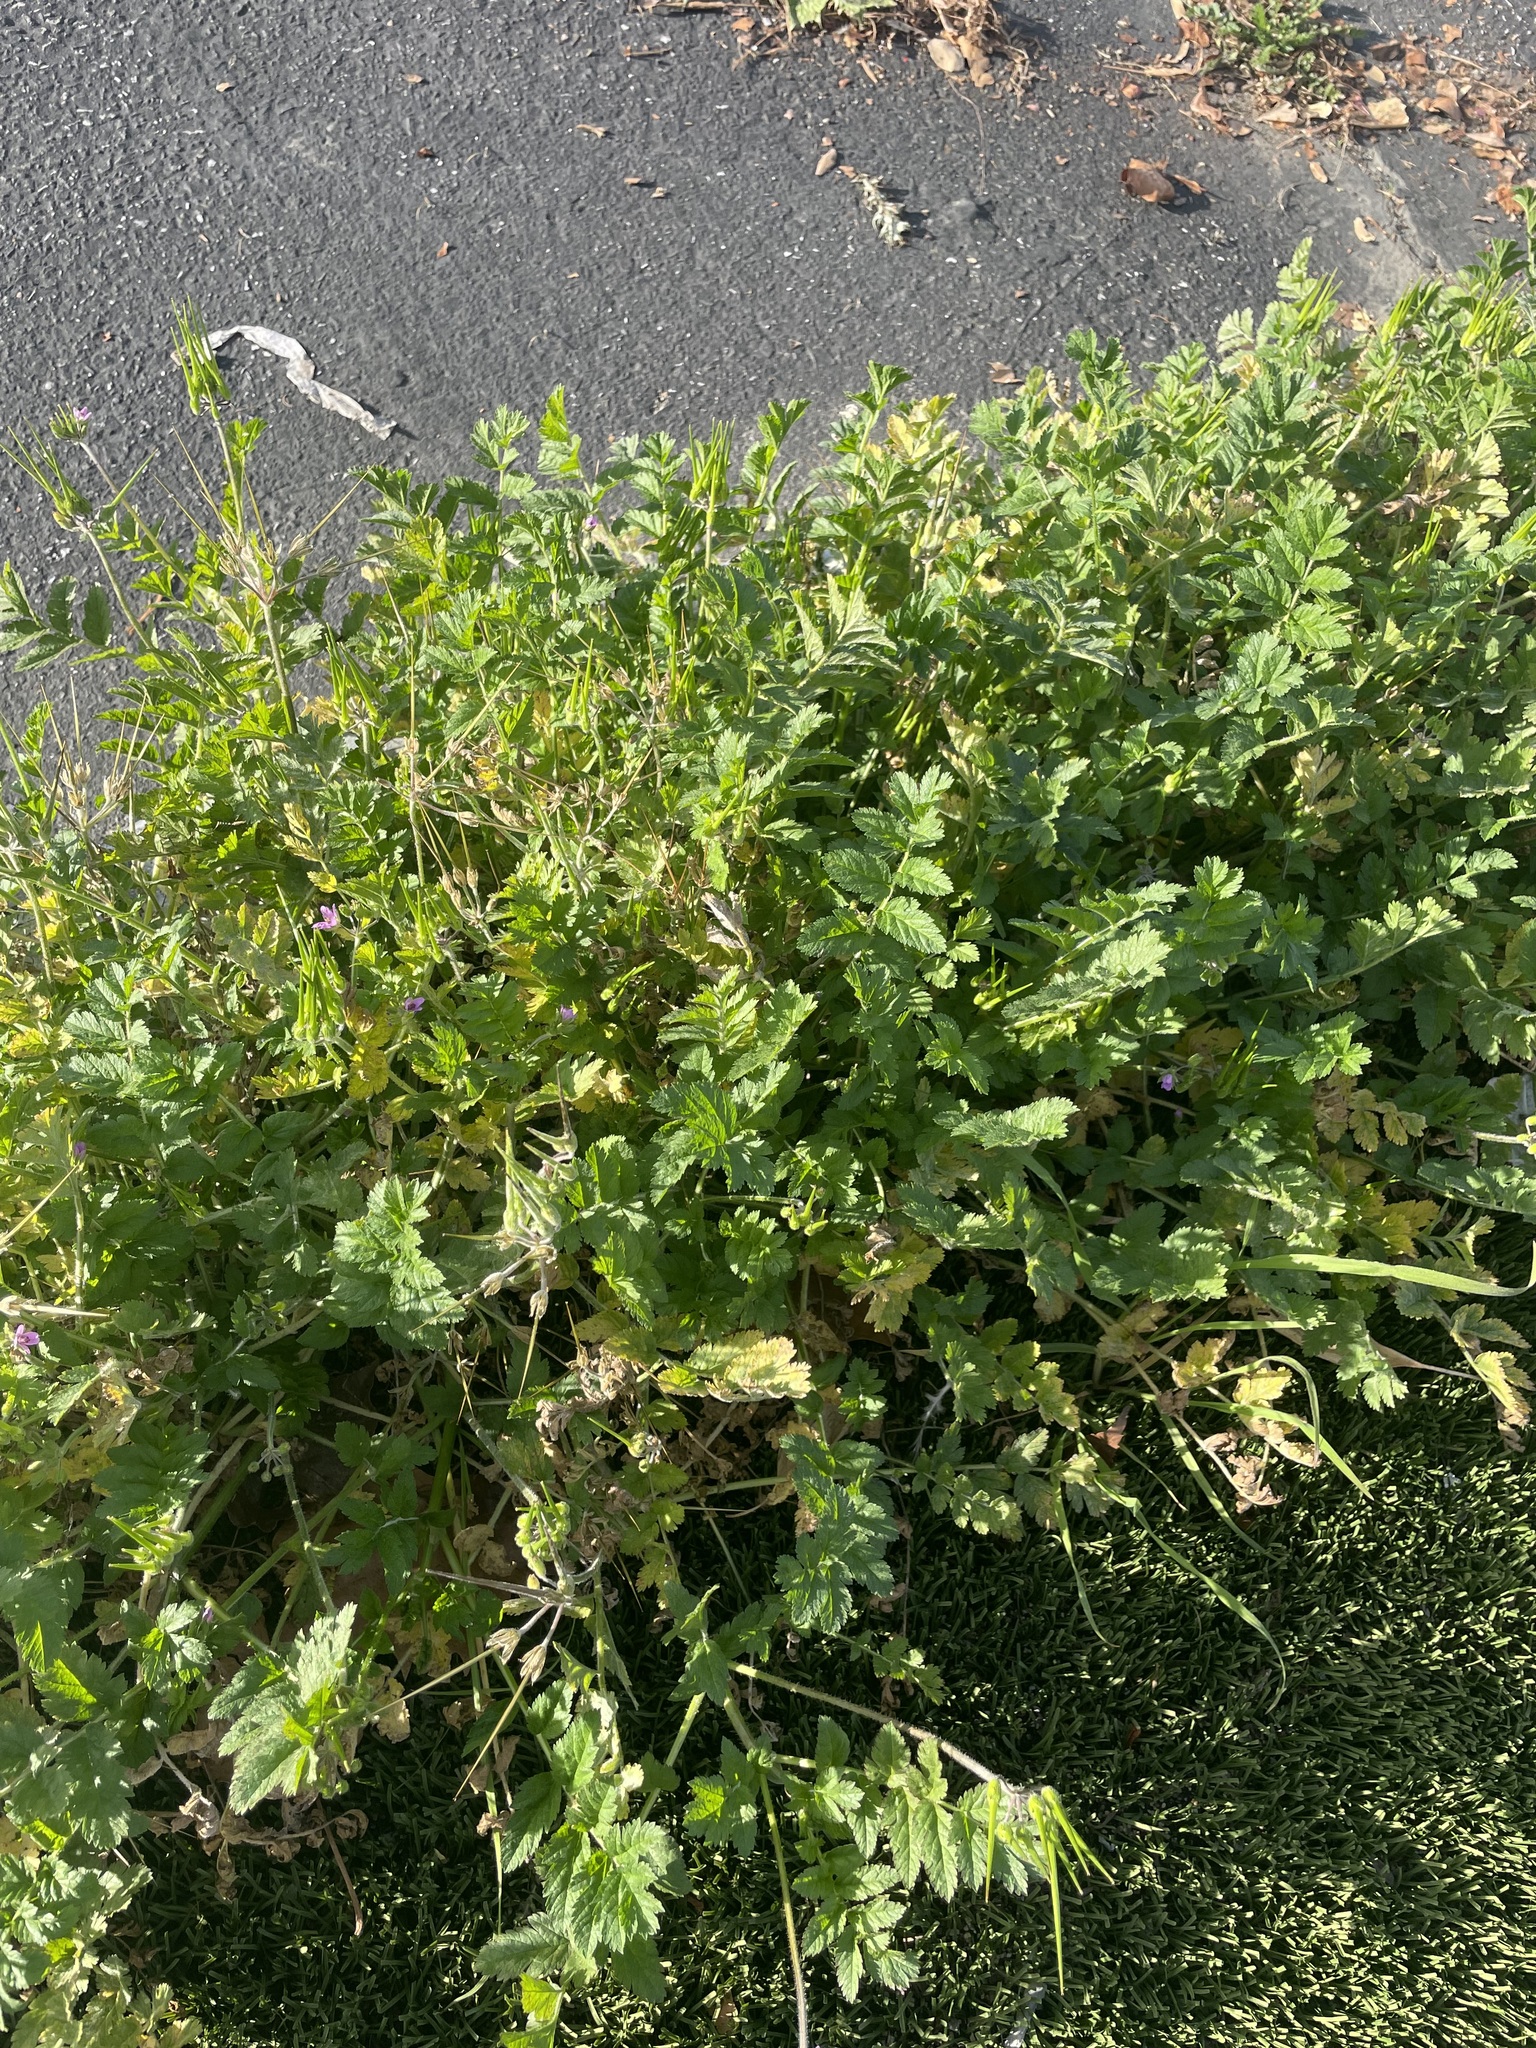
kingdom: Plantae
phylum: Tracheophyta
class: Magnoliopsida
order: Geraniales
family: Geraniaceae
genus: Erodium
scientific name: Erodium moschatum
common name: Musk stork's-bill
